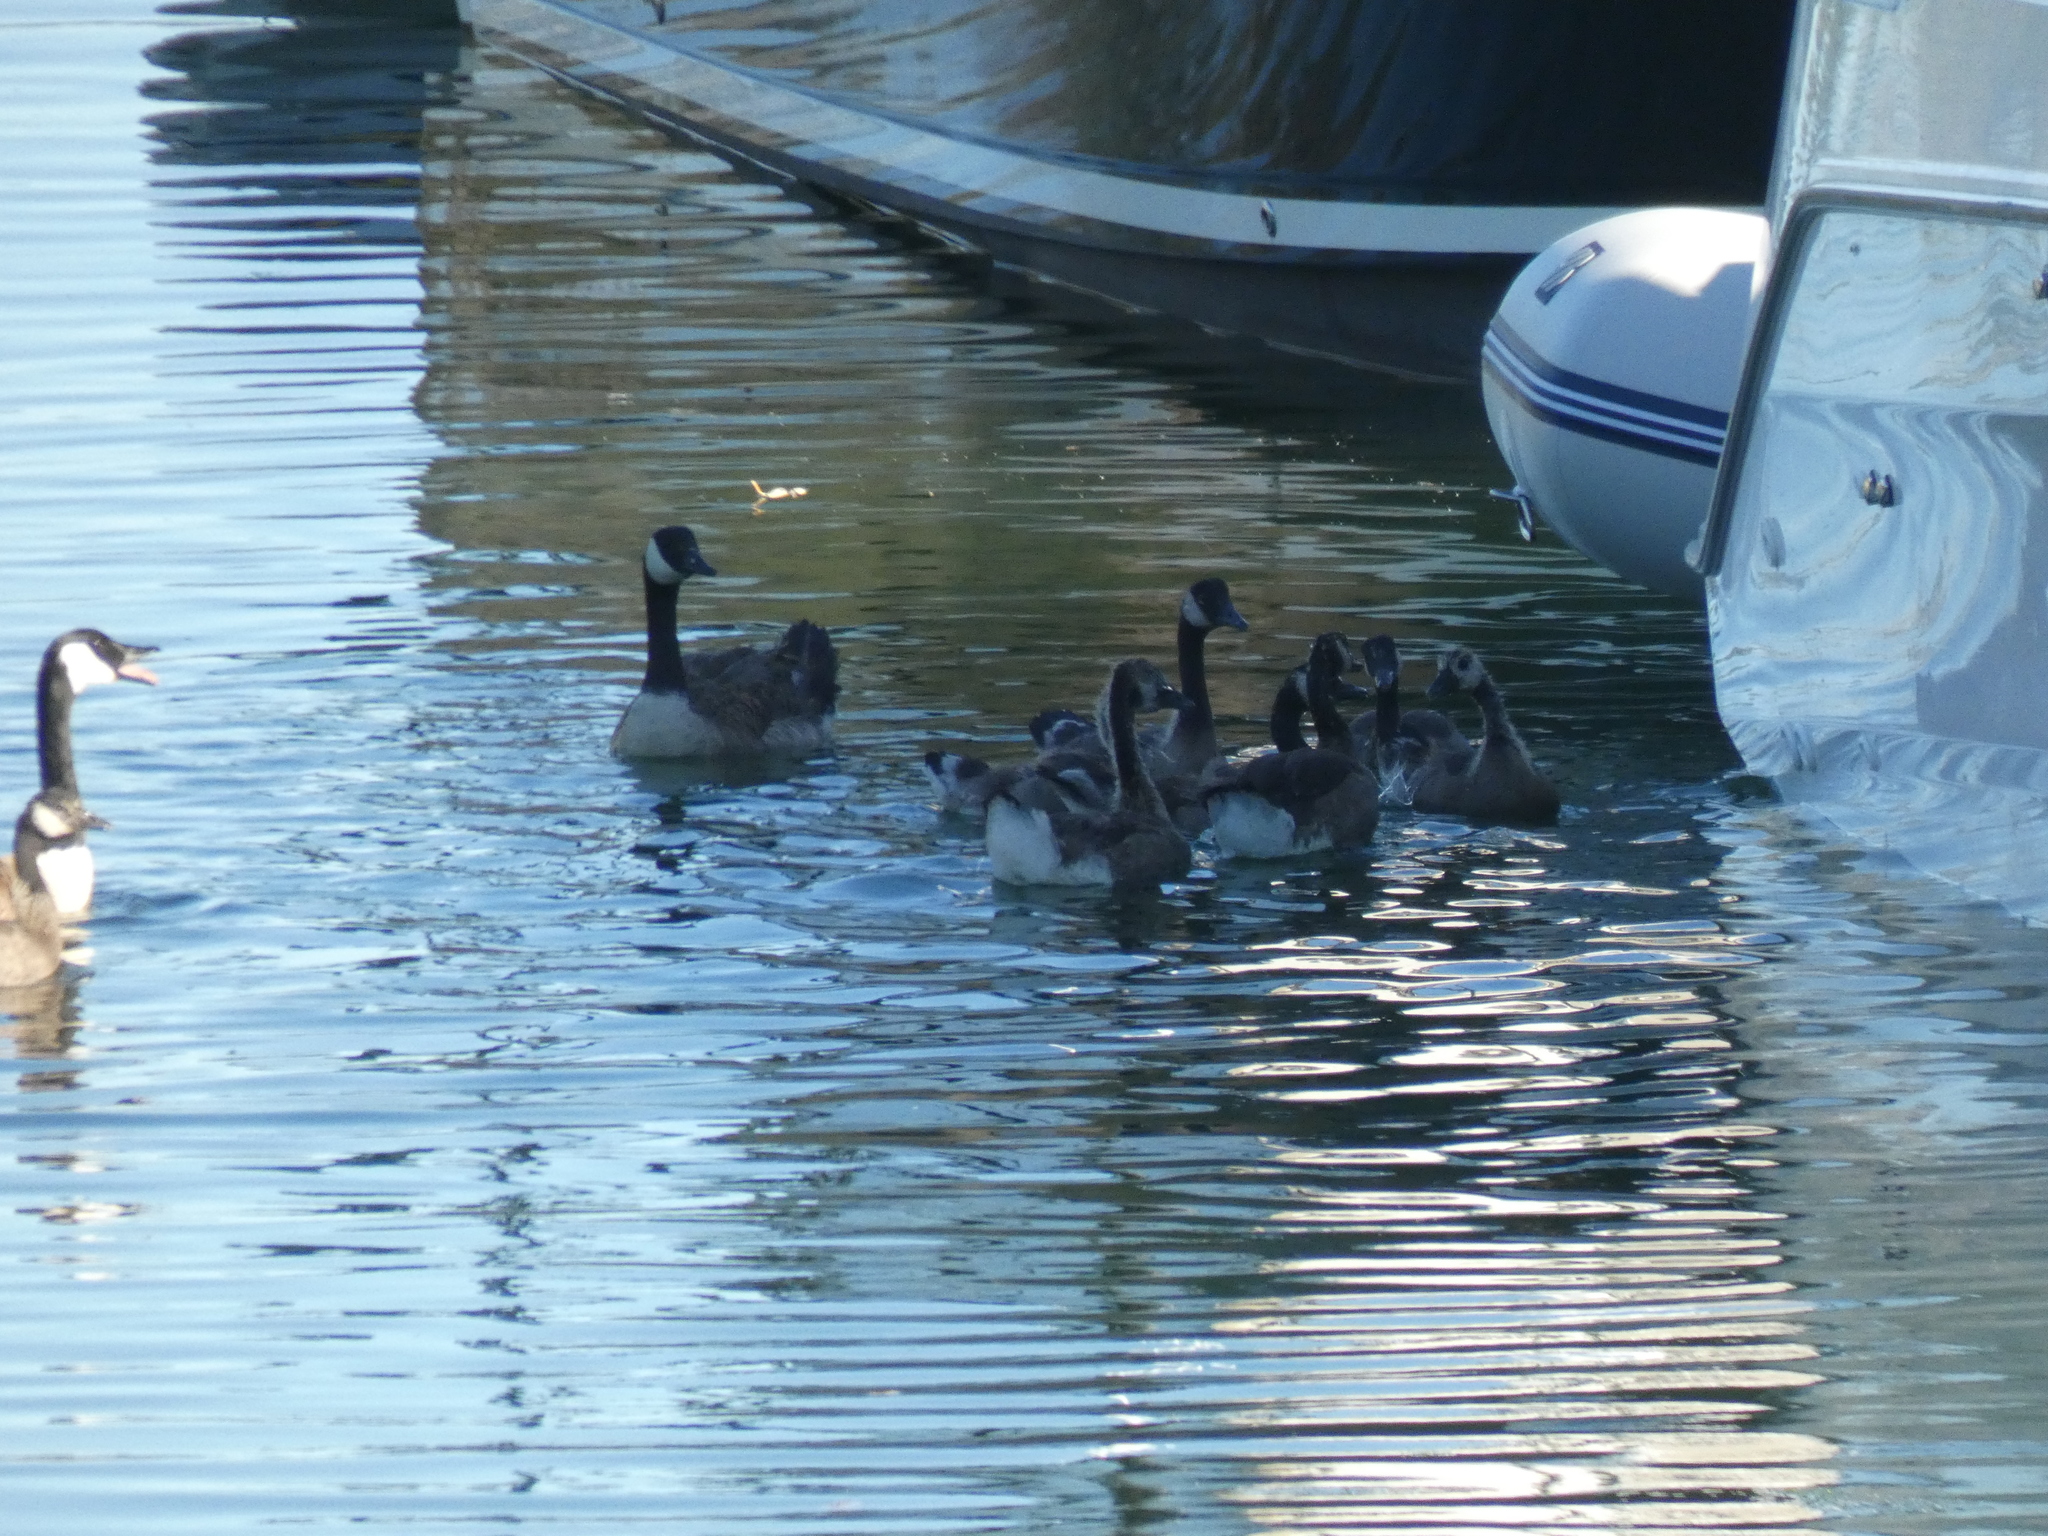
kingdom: Animalia
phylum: Chordata
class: Aves
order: Anseriformes
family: Anatidae
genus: Branta
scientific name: Branta canadensis
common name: Canada goose
